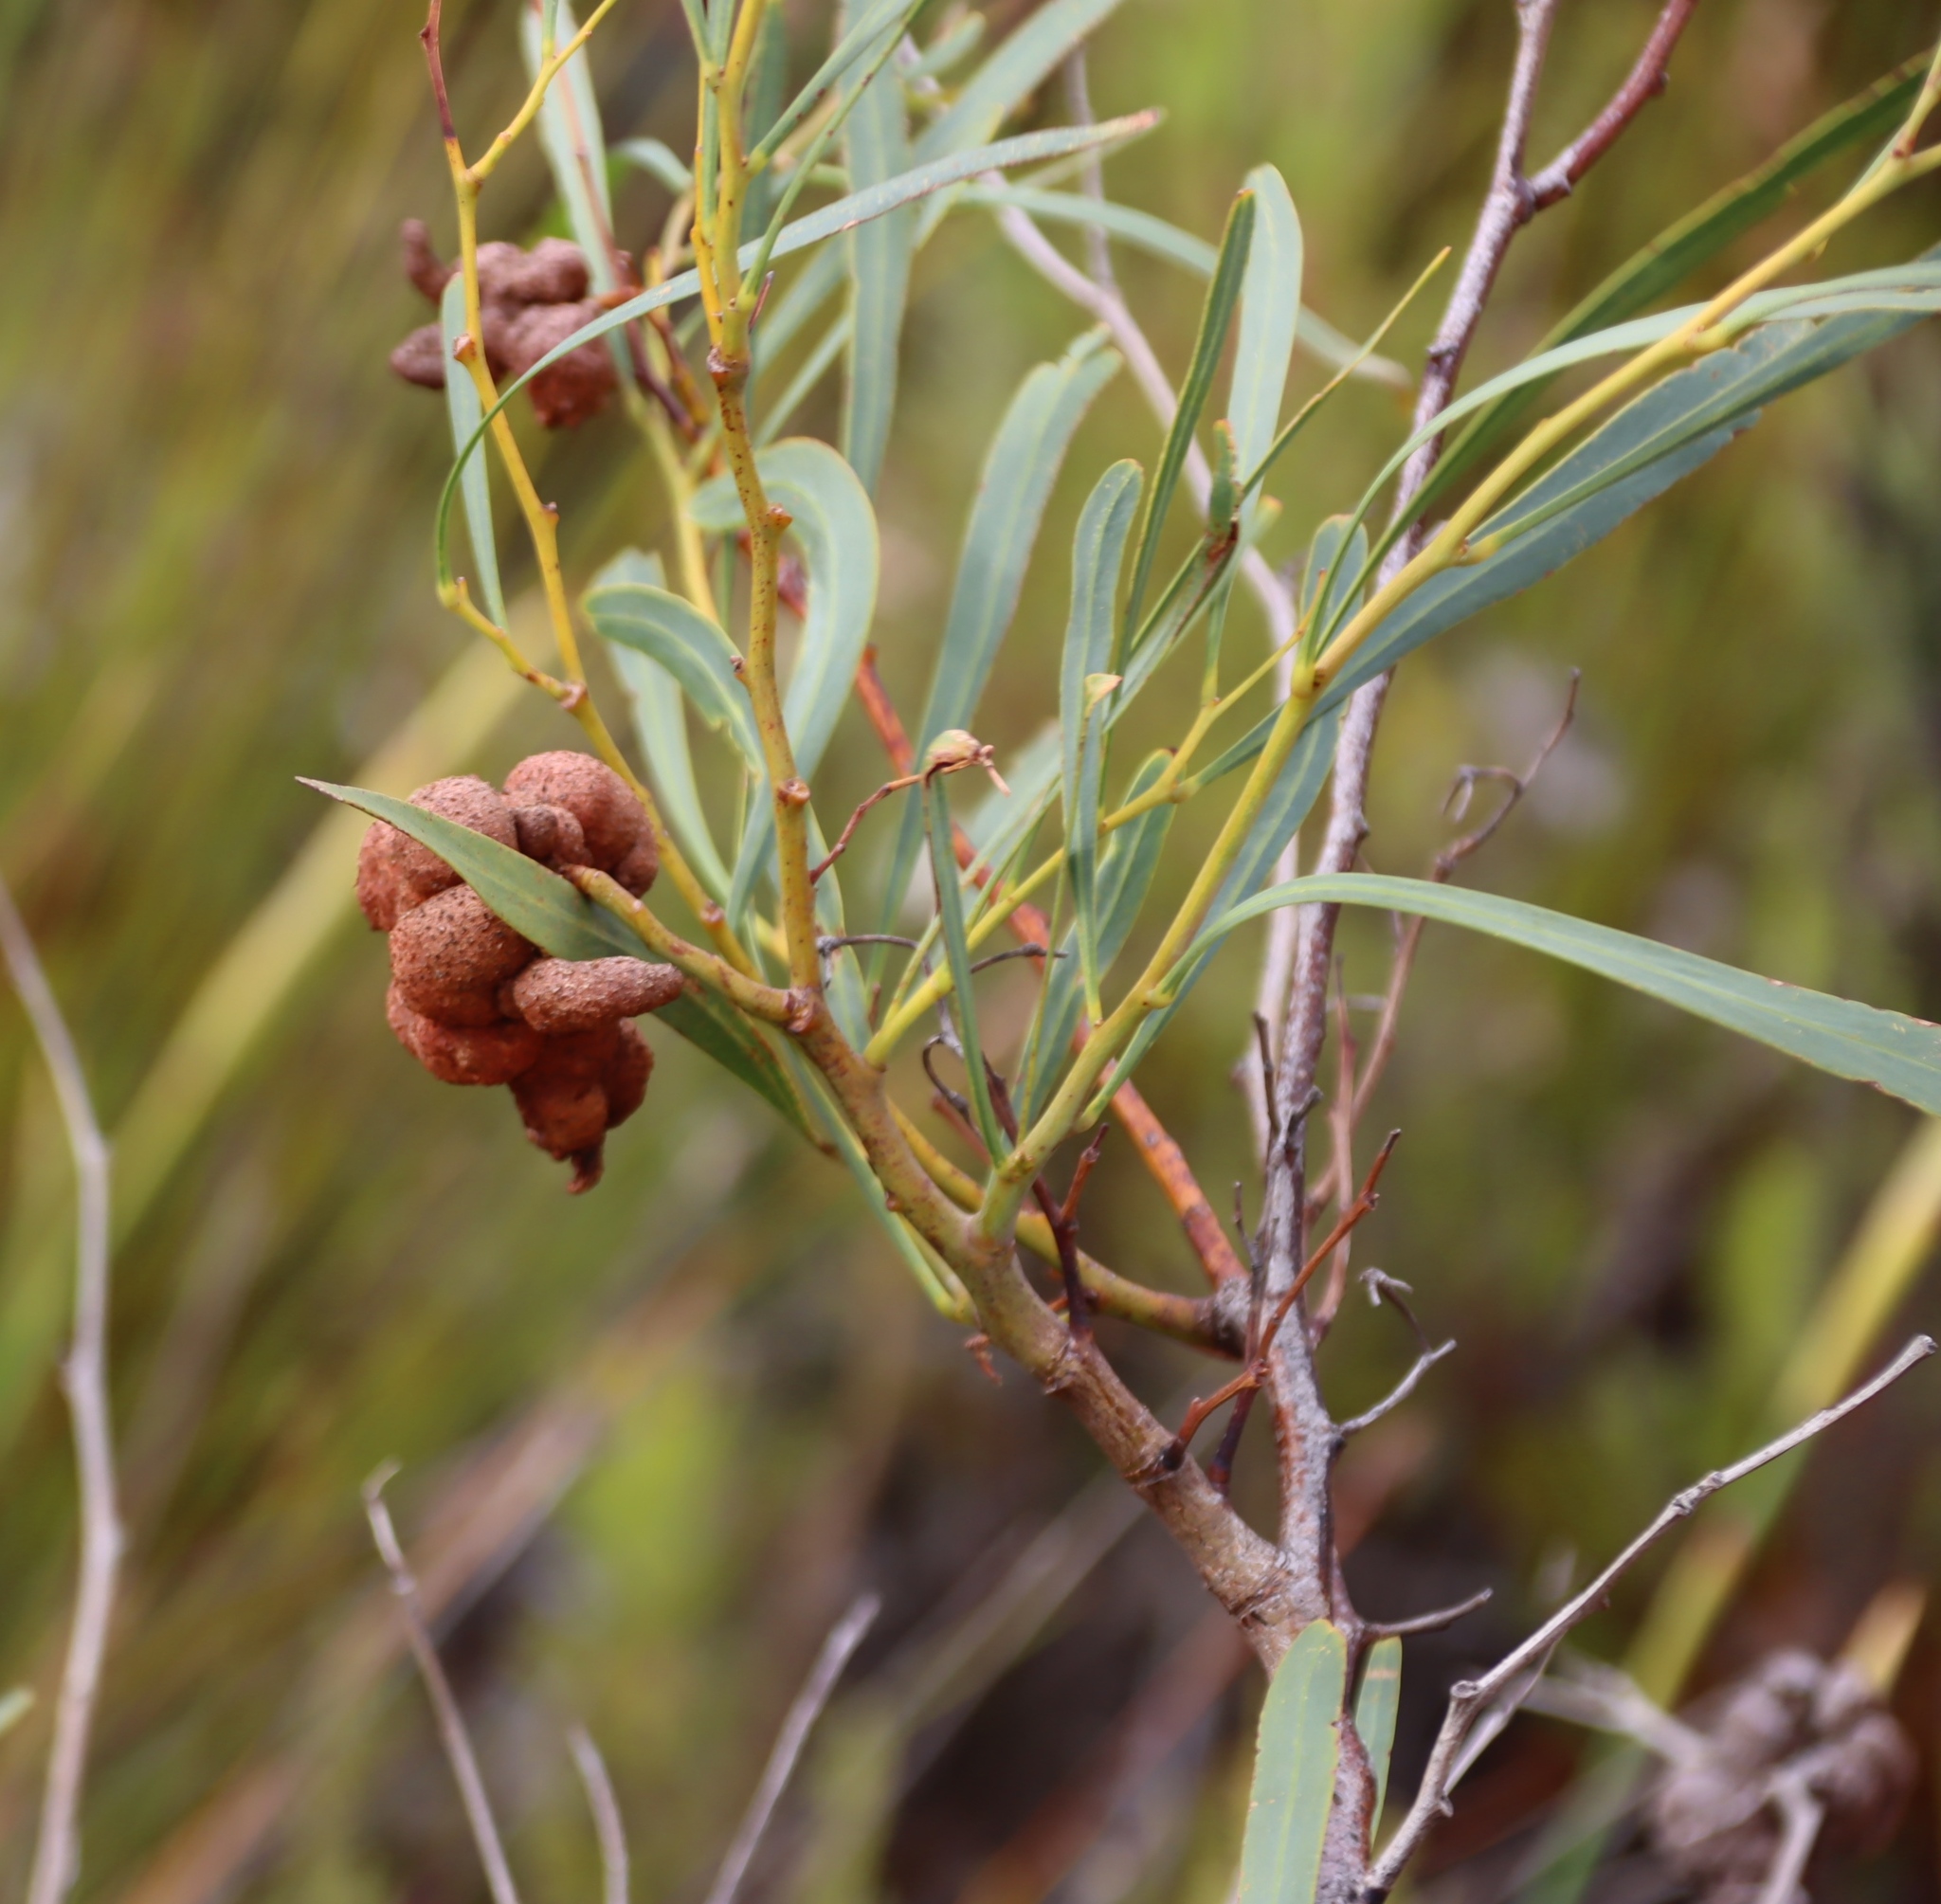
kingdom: Plantae
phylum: Tracheophyta
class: Magnoliopsida
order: Fabales
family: Fabaceae
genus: Acacia
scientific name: Acacia saligna
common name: Orange wattle
